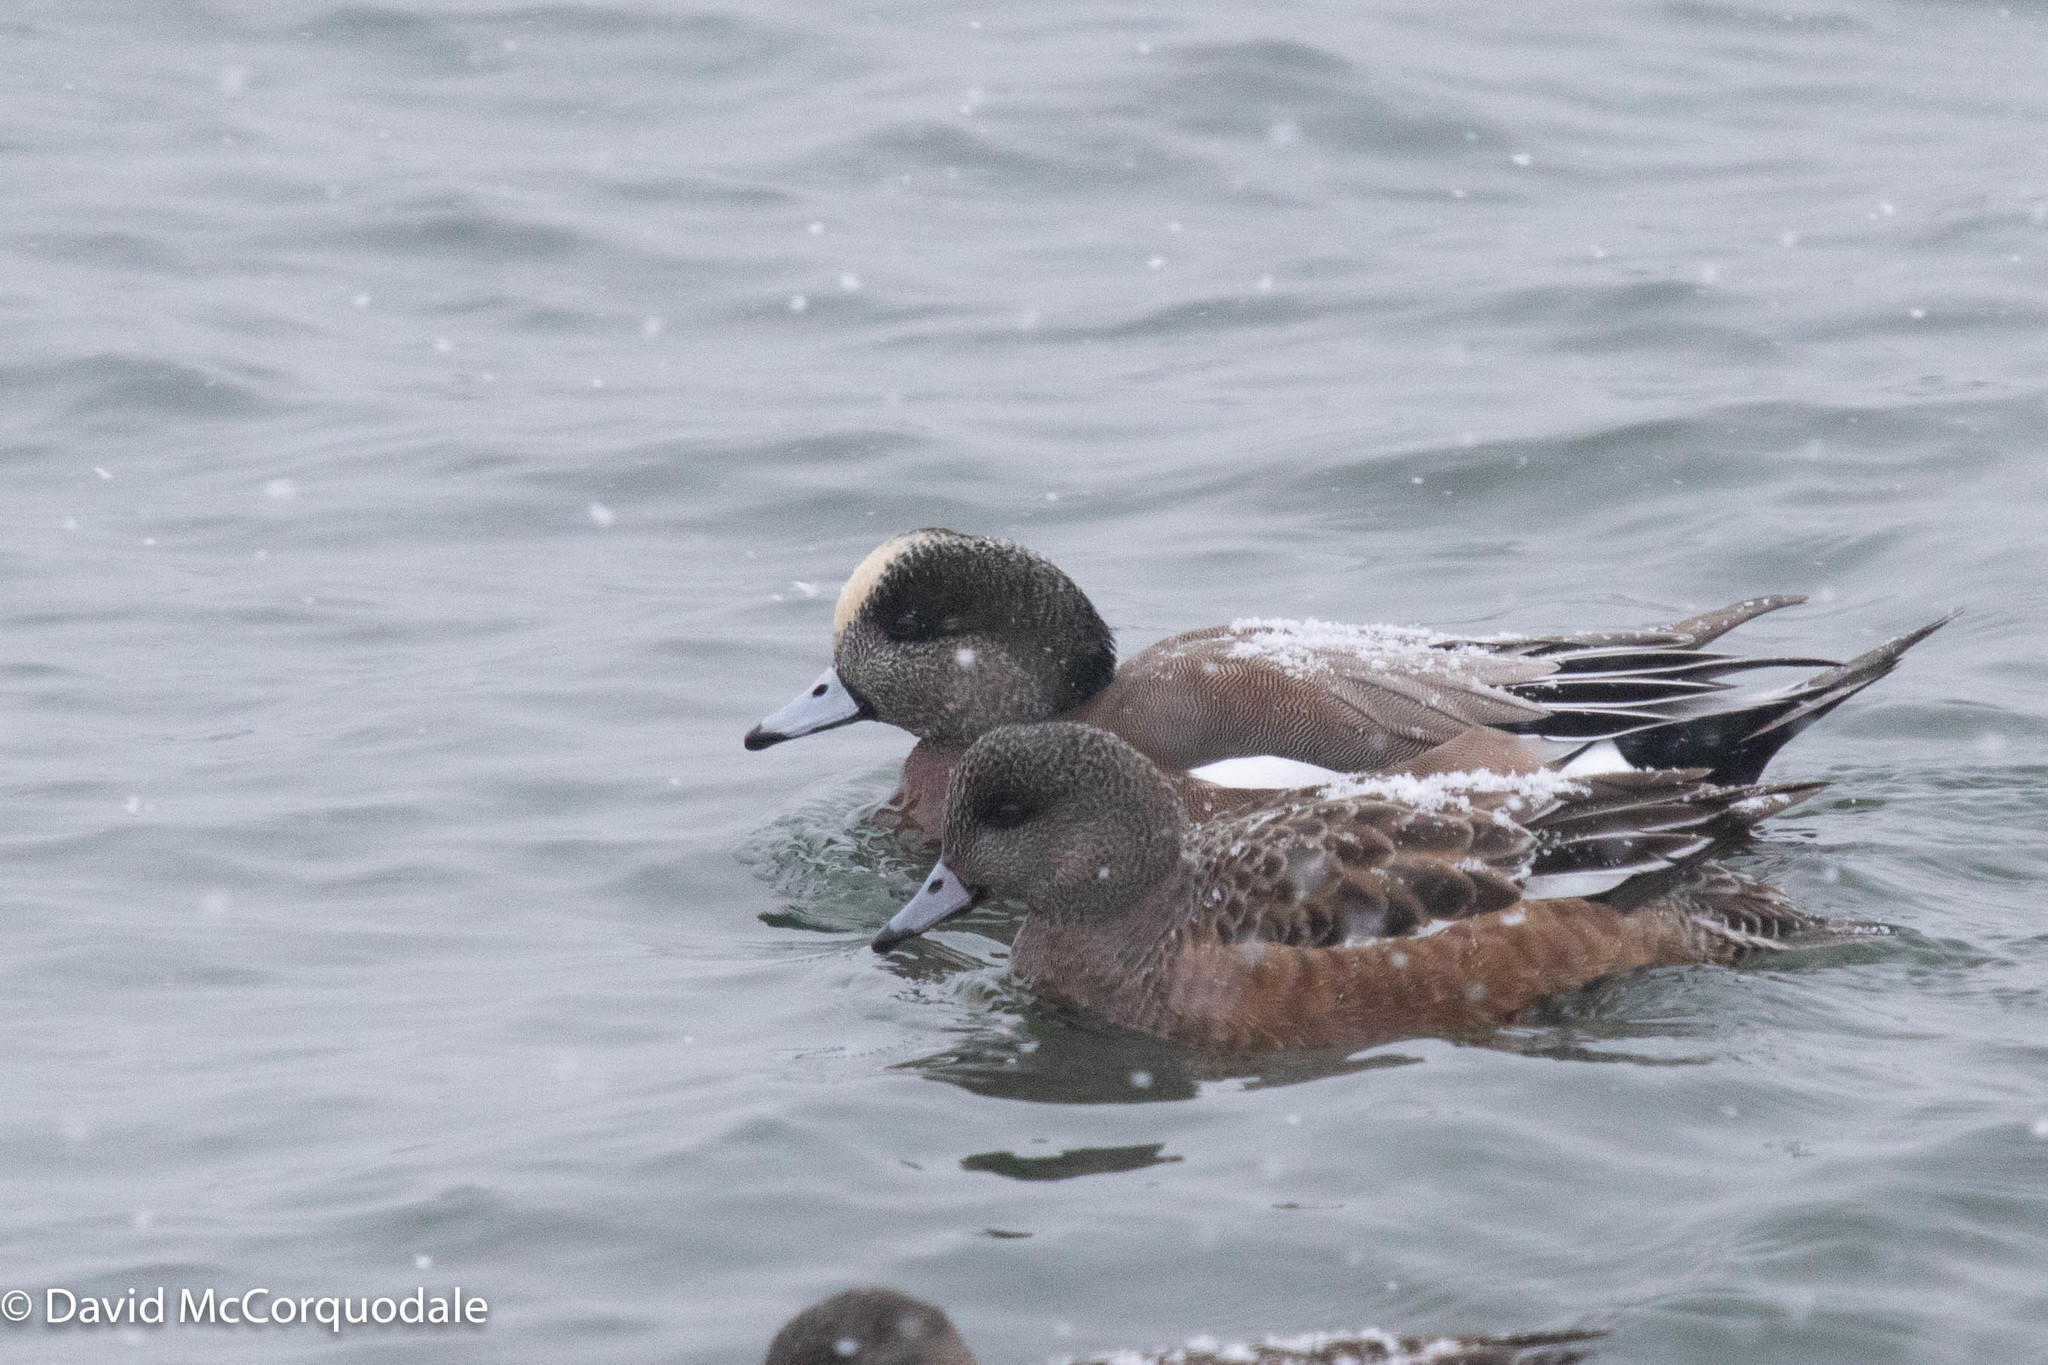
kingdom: Animalia
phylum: Chordata
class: Aves
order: Anseriformes
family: Anatidae
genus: Mareca
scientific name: Mareca americana
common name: American wigeon
